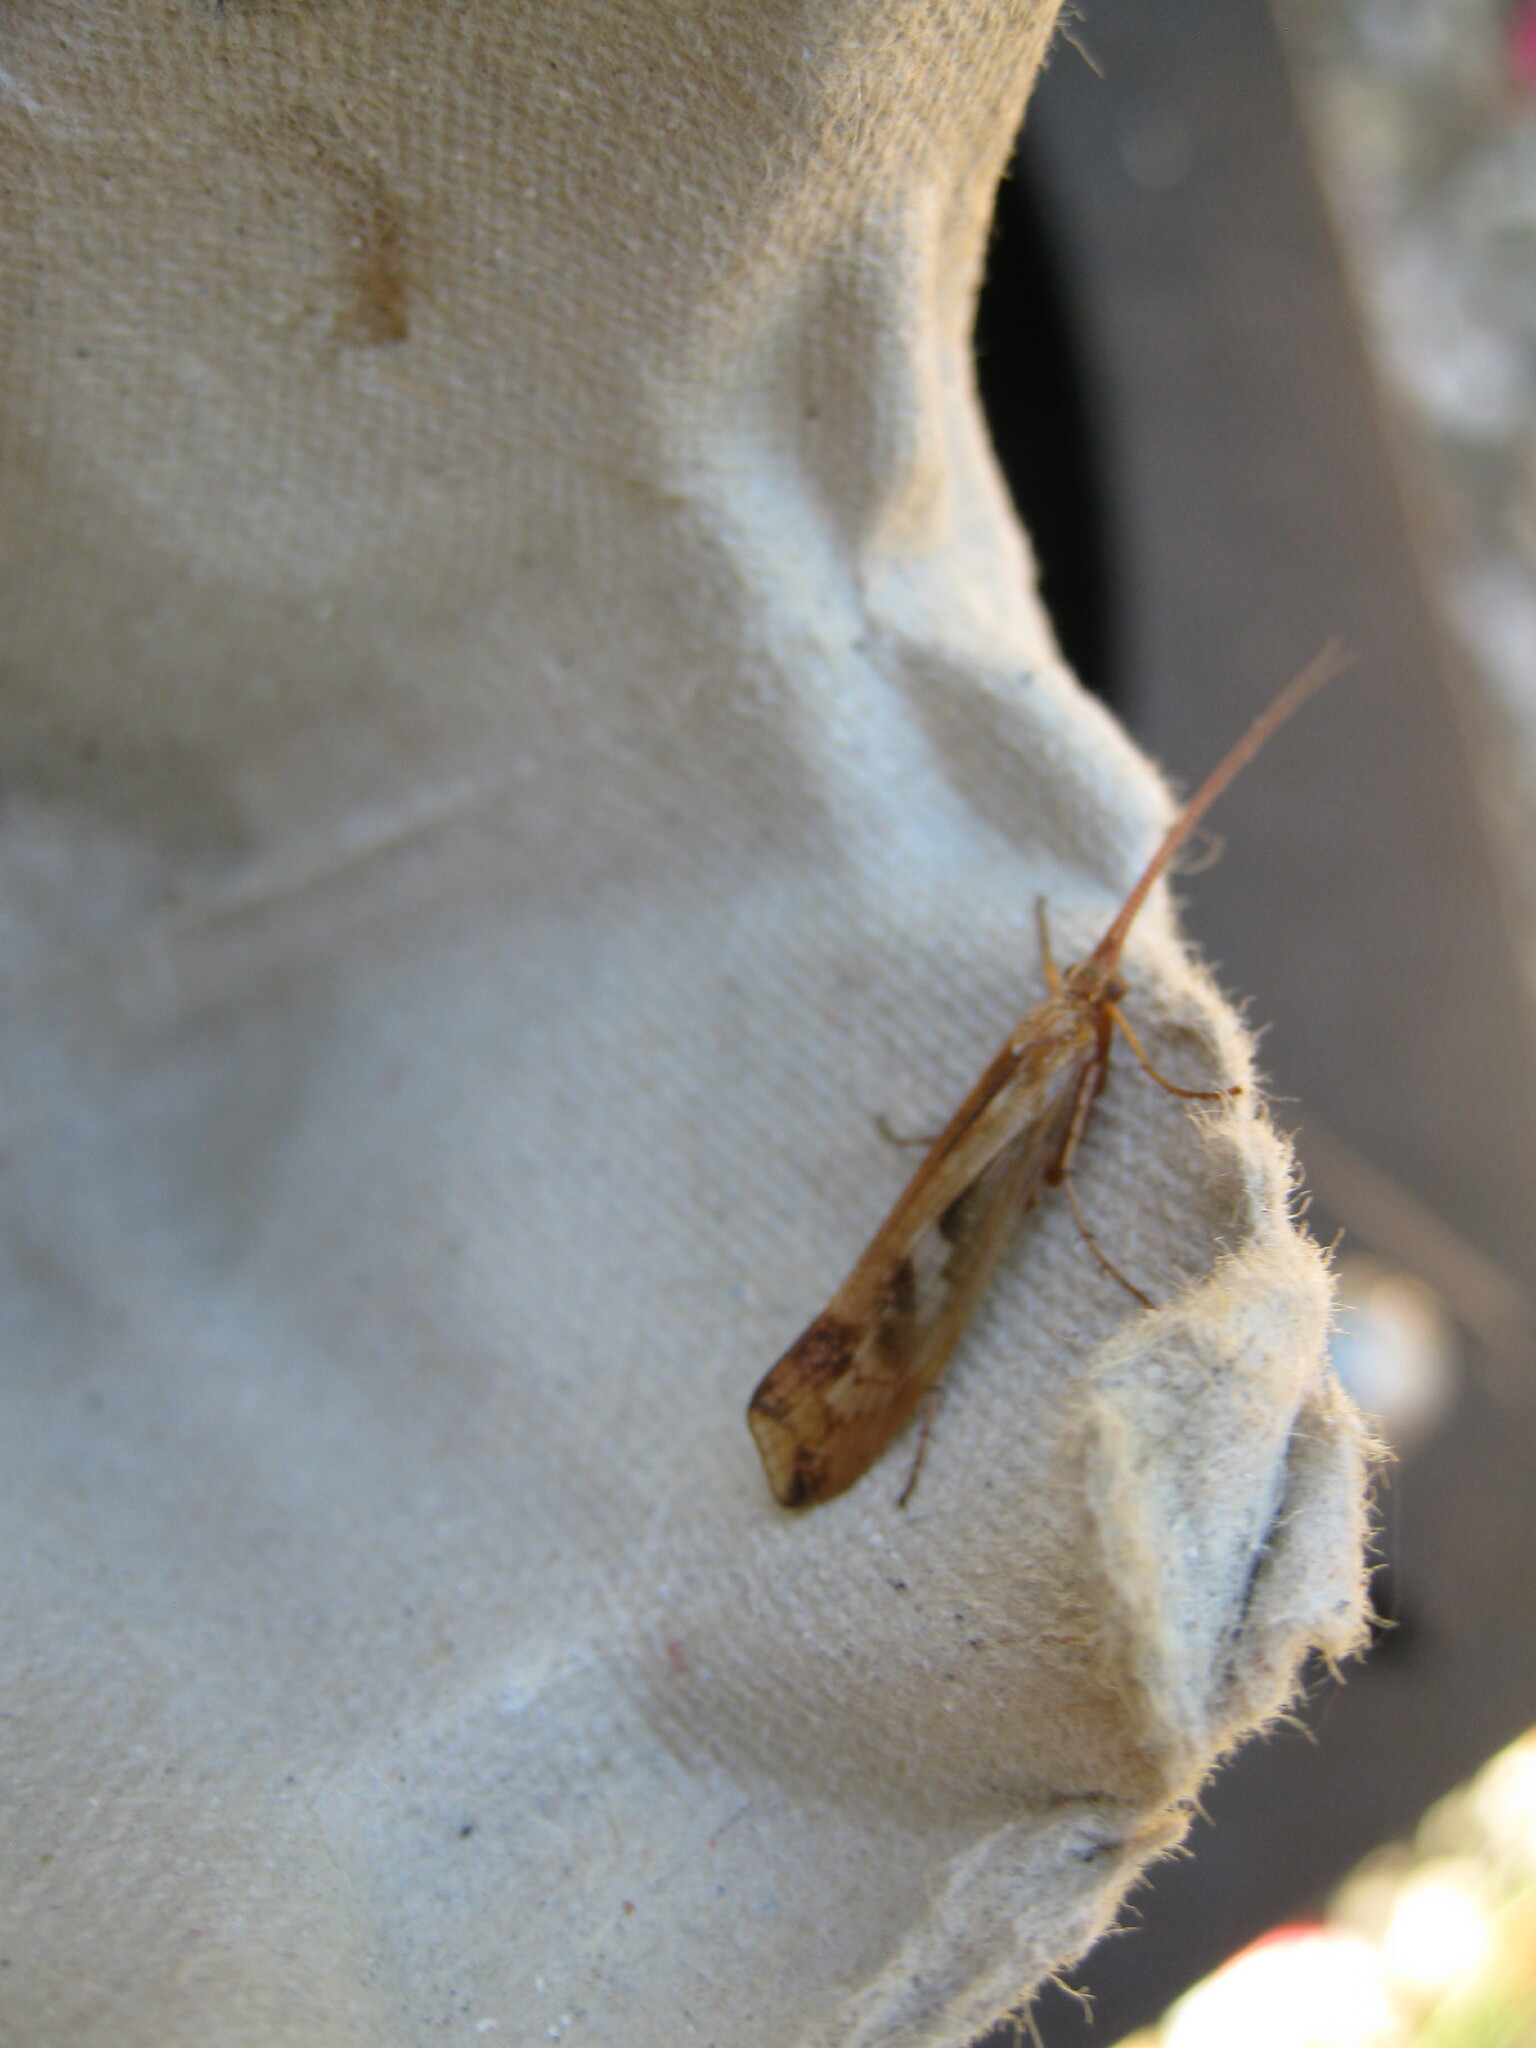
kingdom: Animalia
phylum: Arthropoda
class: Insecta
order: Trichoptera
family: Limnephilidae
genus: Limnephilus
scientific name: Limnephilus lunatus
